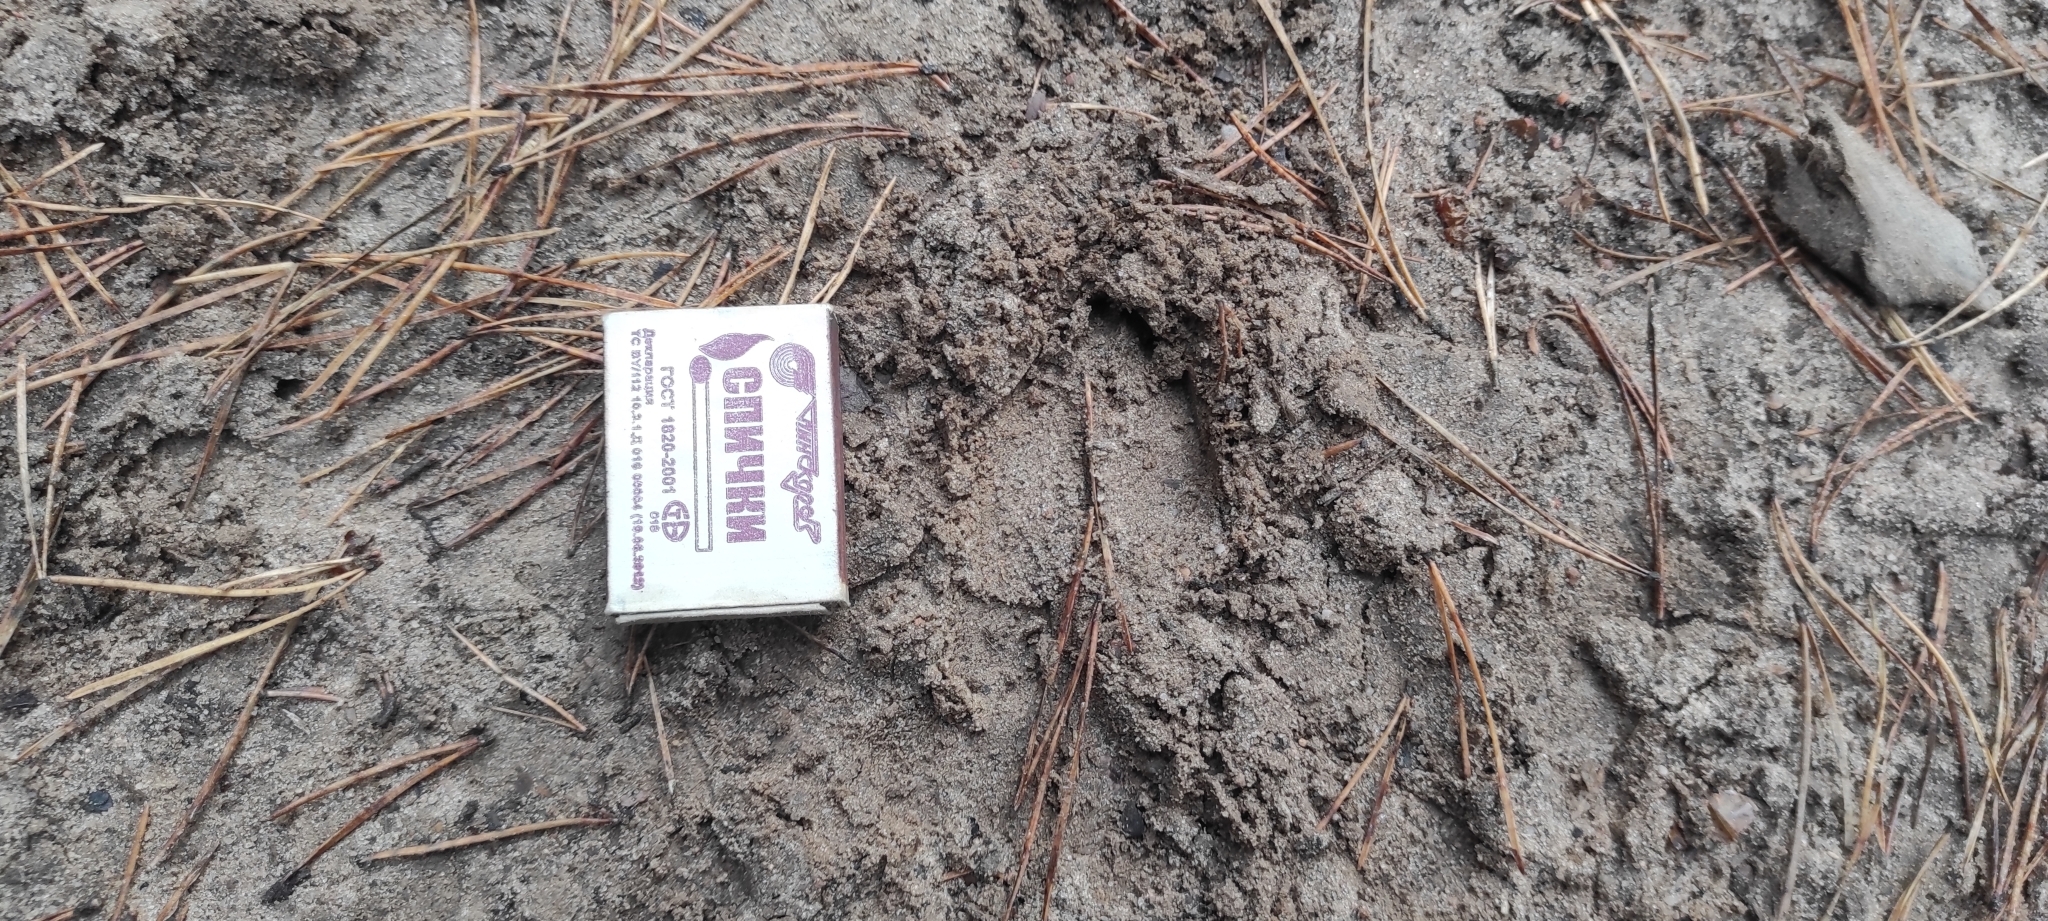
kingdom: Animalia
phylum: Chordata
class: Mammalia
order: Artiodactyla
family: Cervidae
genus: Capreolus
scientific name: Capreolus capreolus
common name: Western roe deer
